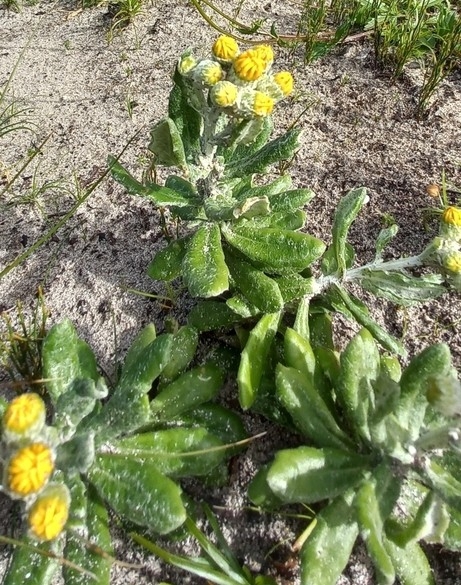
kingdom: Plantae
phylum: Tracheophyta
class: Magnoliopsida
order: Asterales
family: Asteraceae
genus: Senecio
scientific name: Senecio arniciflorus
